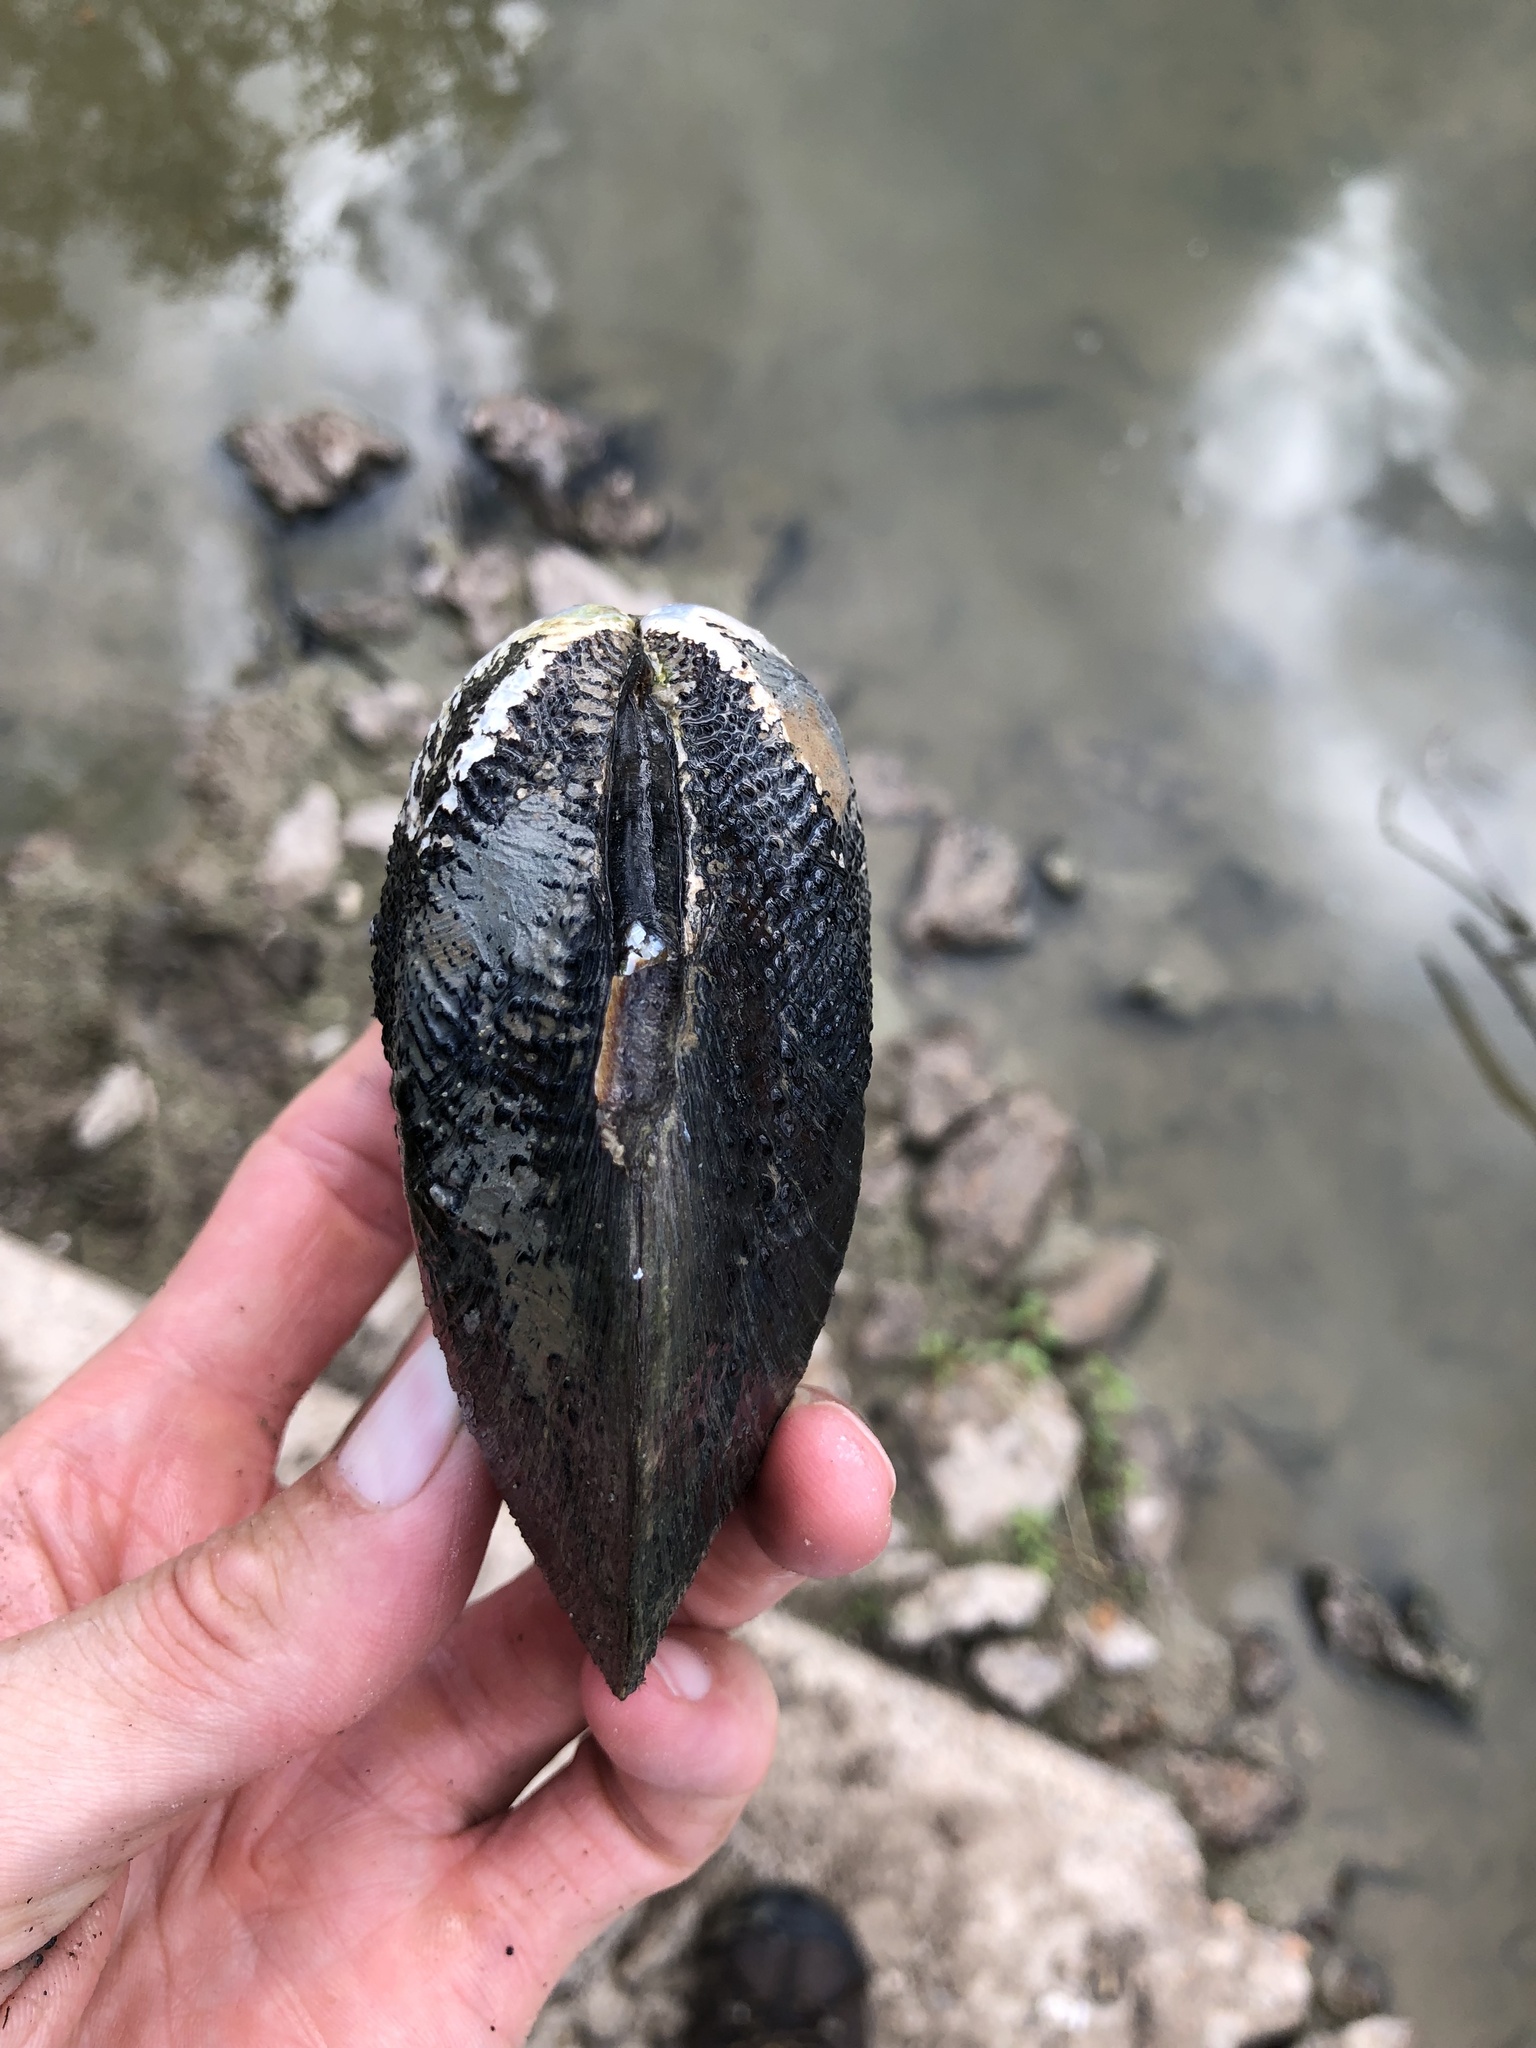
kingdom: Animalia
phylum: Mollusca
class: Bivalvia
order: Unionida
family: Unionidae
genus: Quadrula
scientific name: Quadrula quadrula
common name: Mapleleaf
